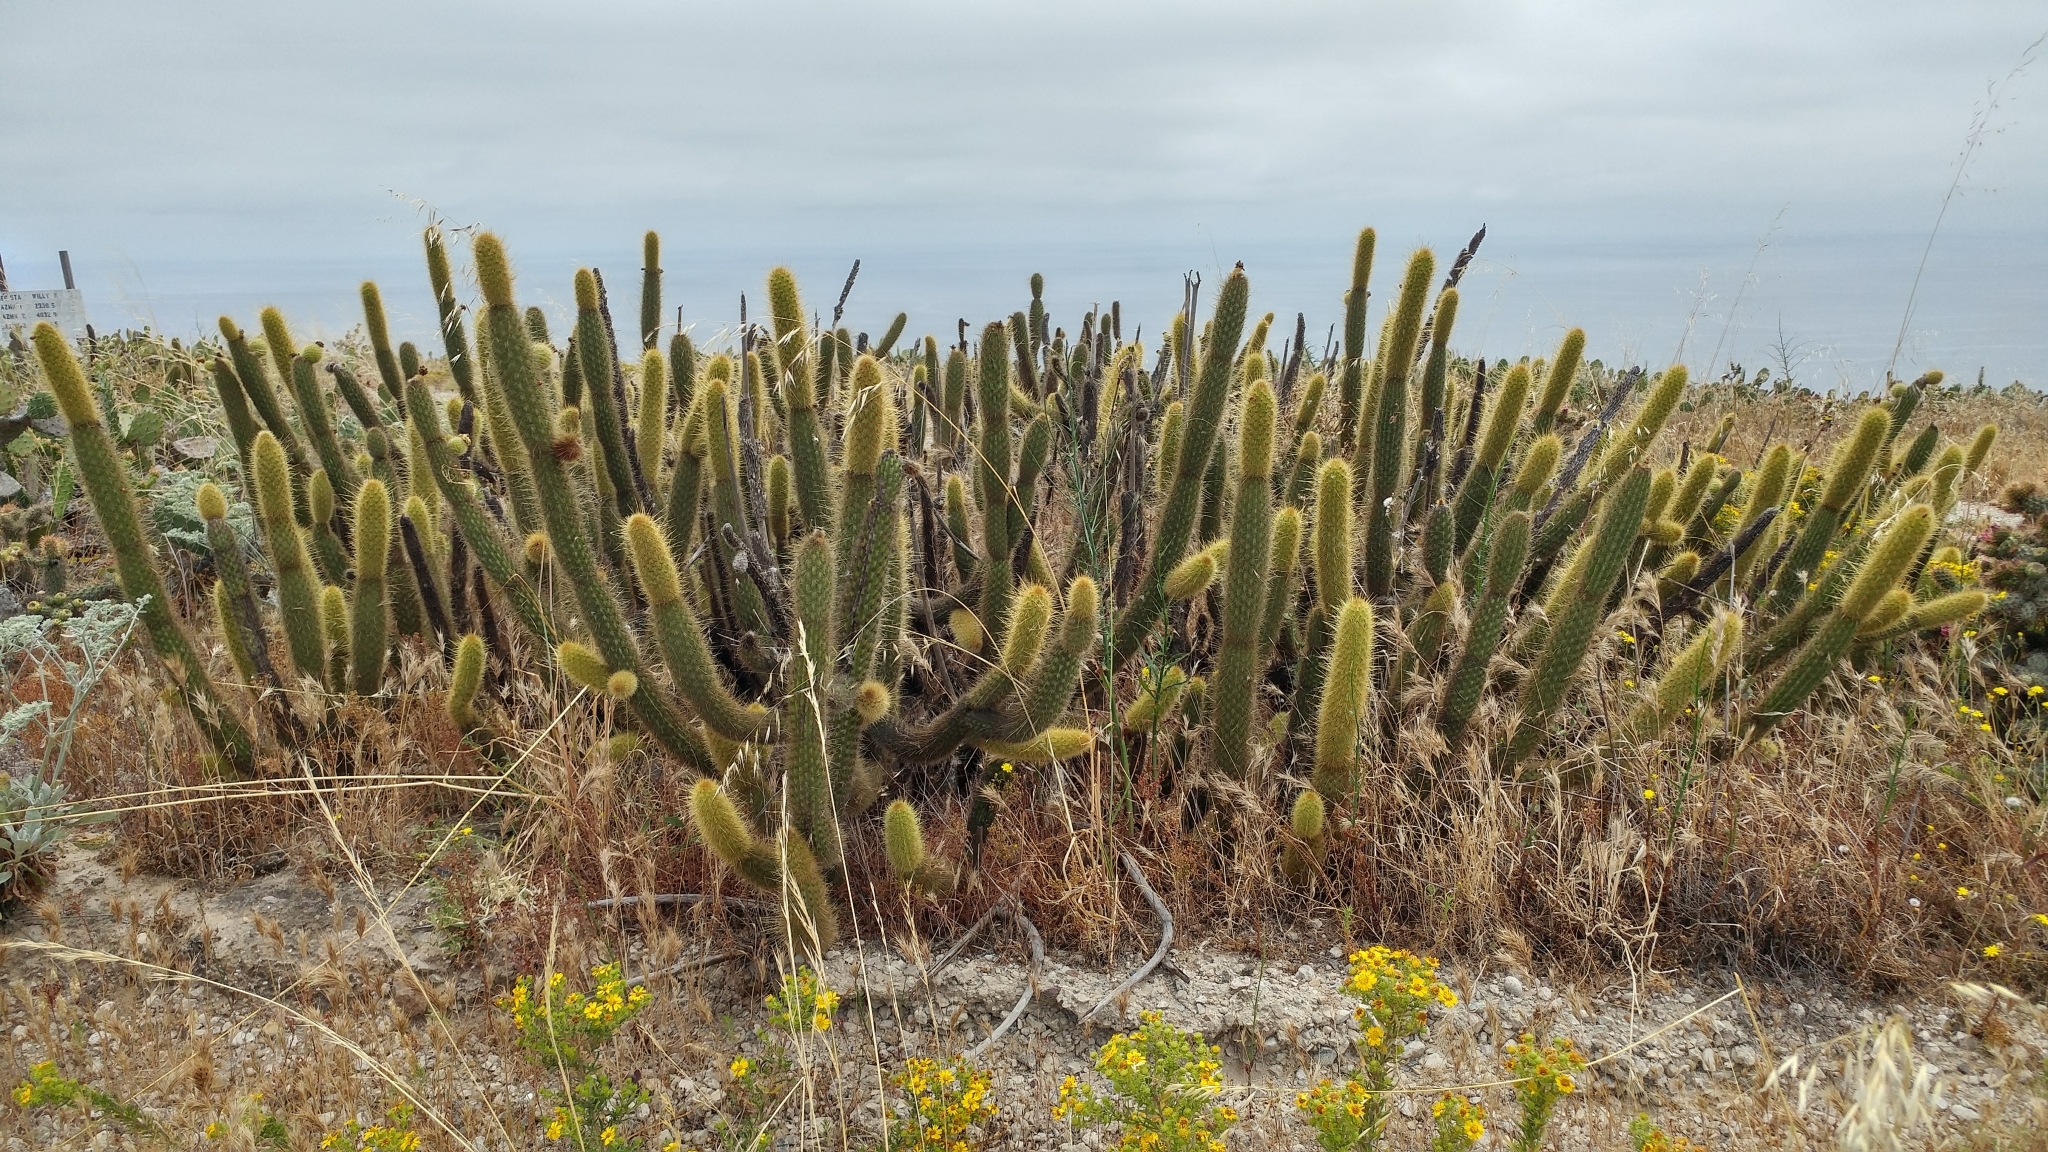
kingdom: Plantae
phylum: Tracheophyta
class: Magnoliopsida
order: Caryophyllales
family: Cactaceae
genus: Bergerocactus
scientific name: Bergerocactus emoryi
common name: Golden snakecactus
